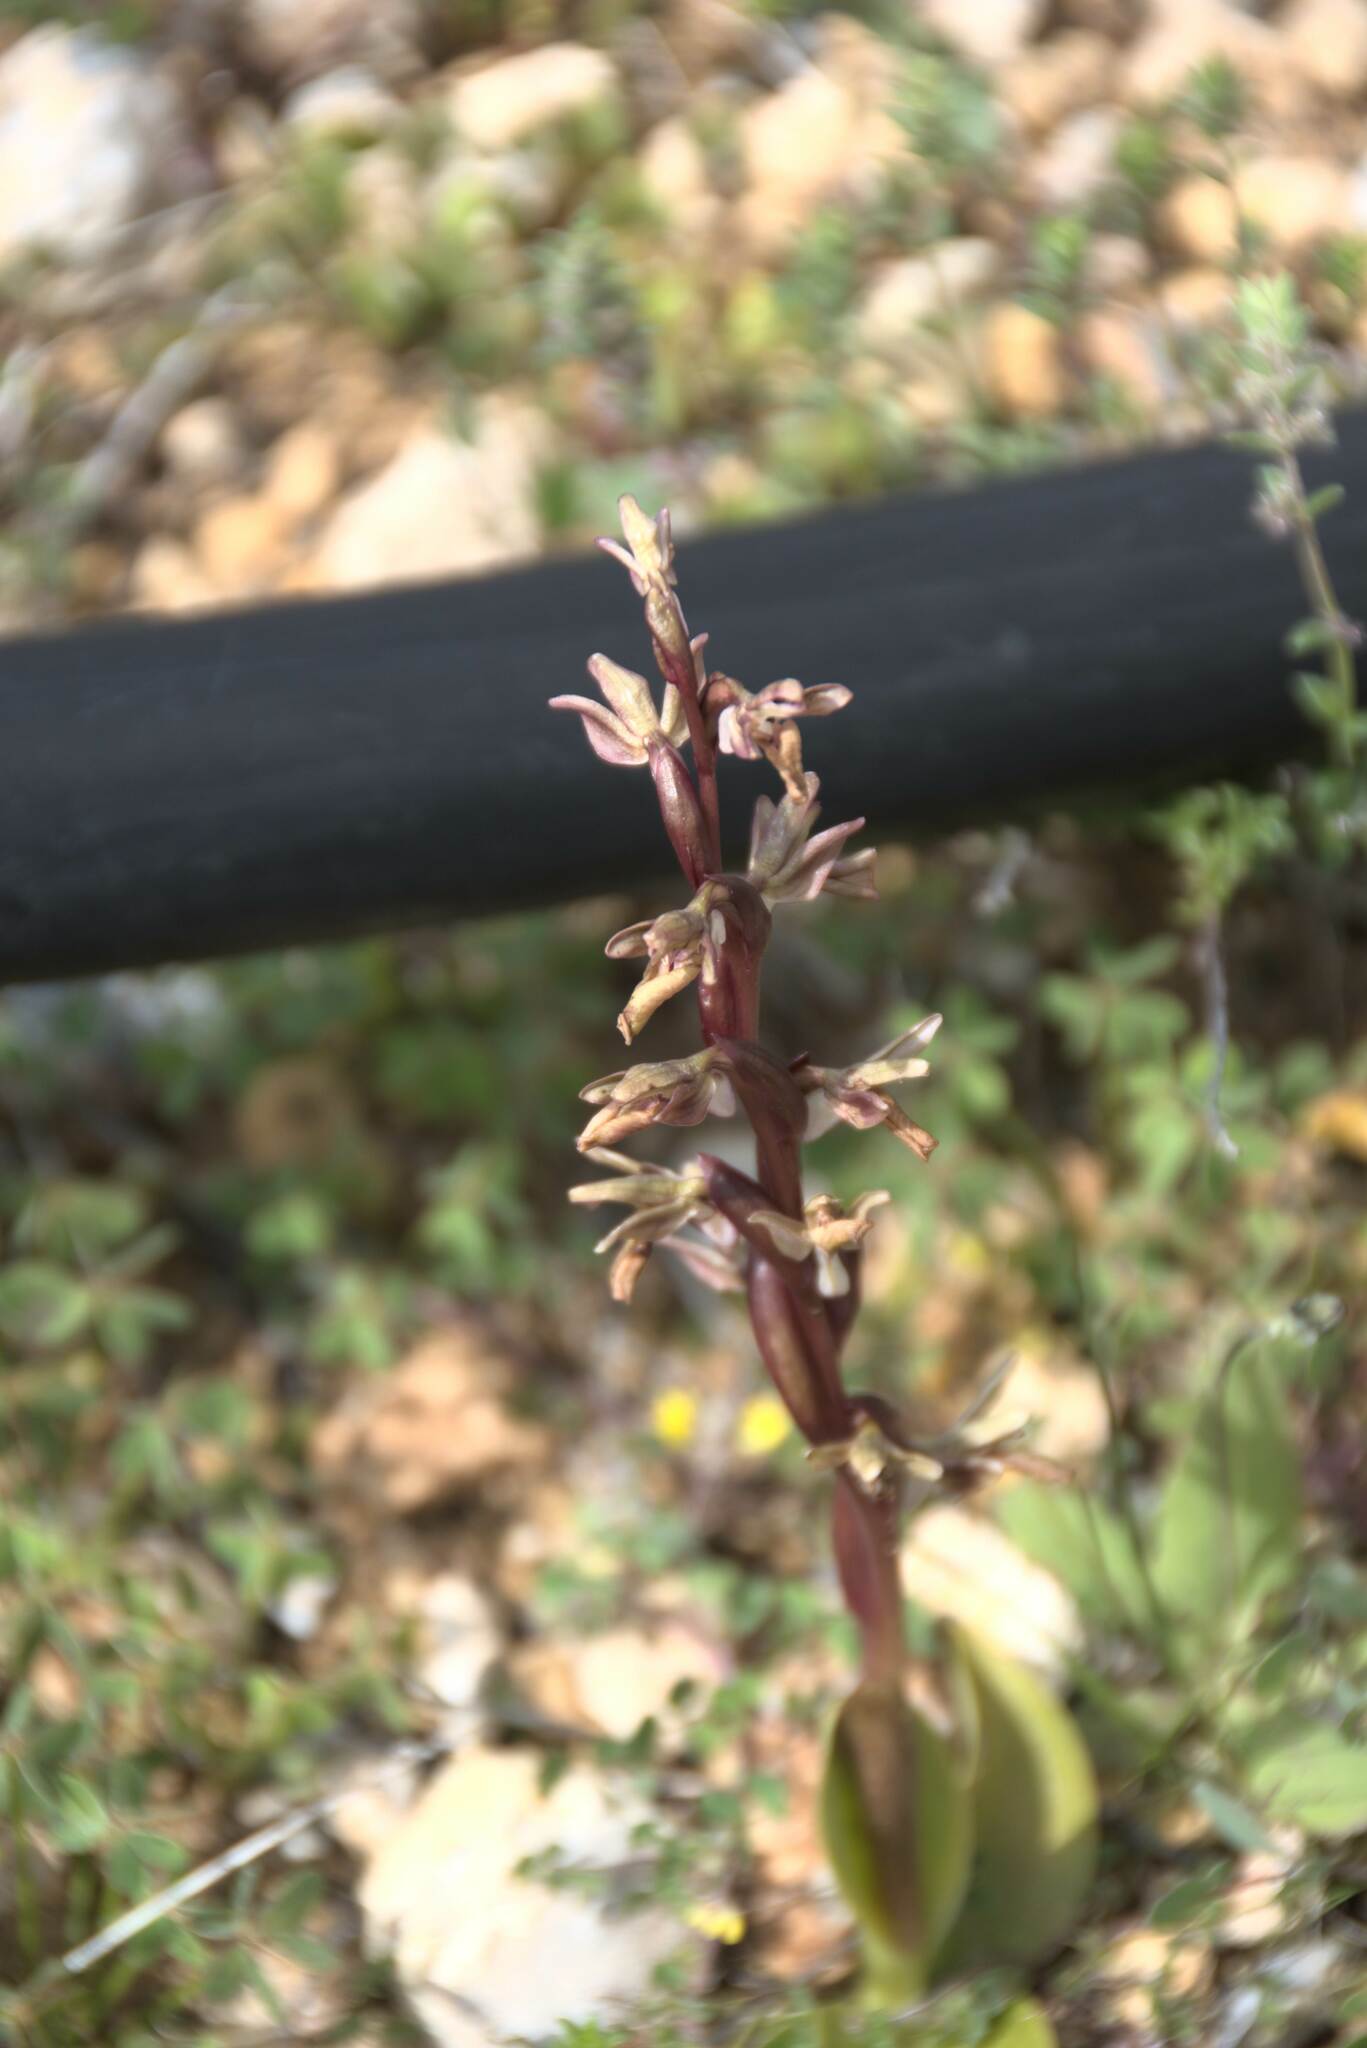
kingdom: Plantae
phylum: Tracheophyta
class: Liliopsida
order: Asparagales
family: Orchidaceae
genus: Anacamptis
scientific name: Anacamptis collina
